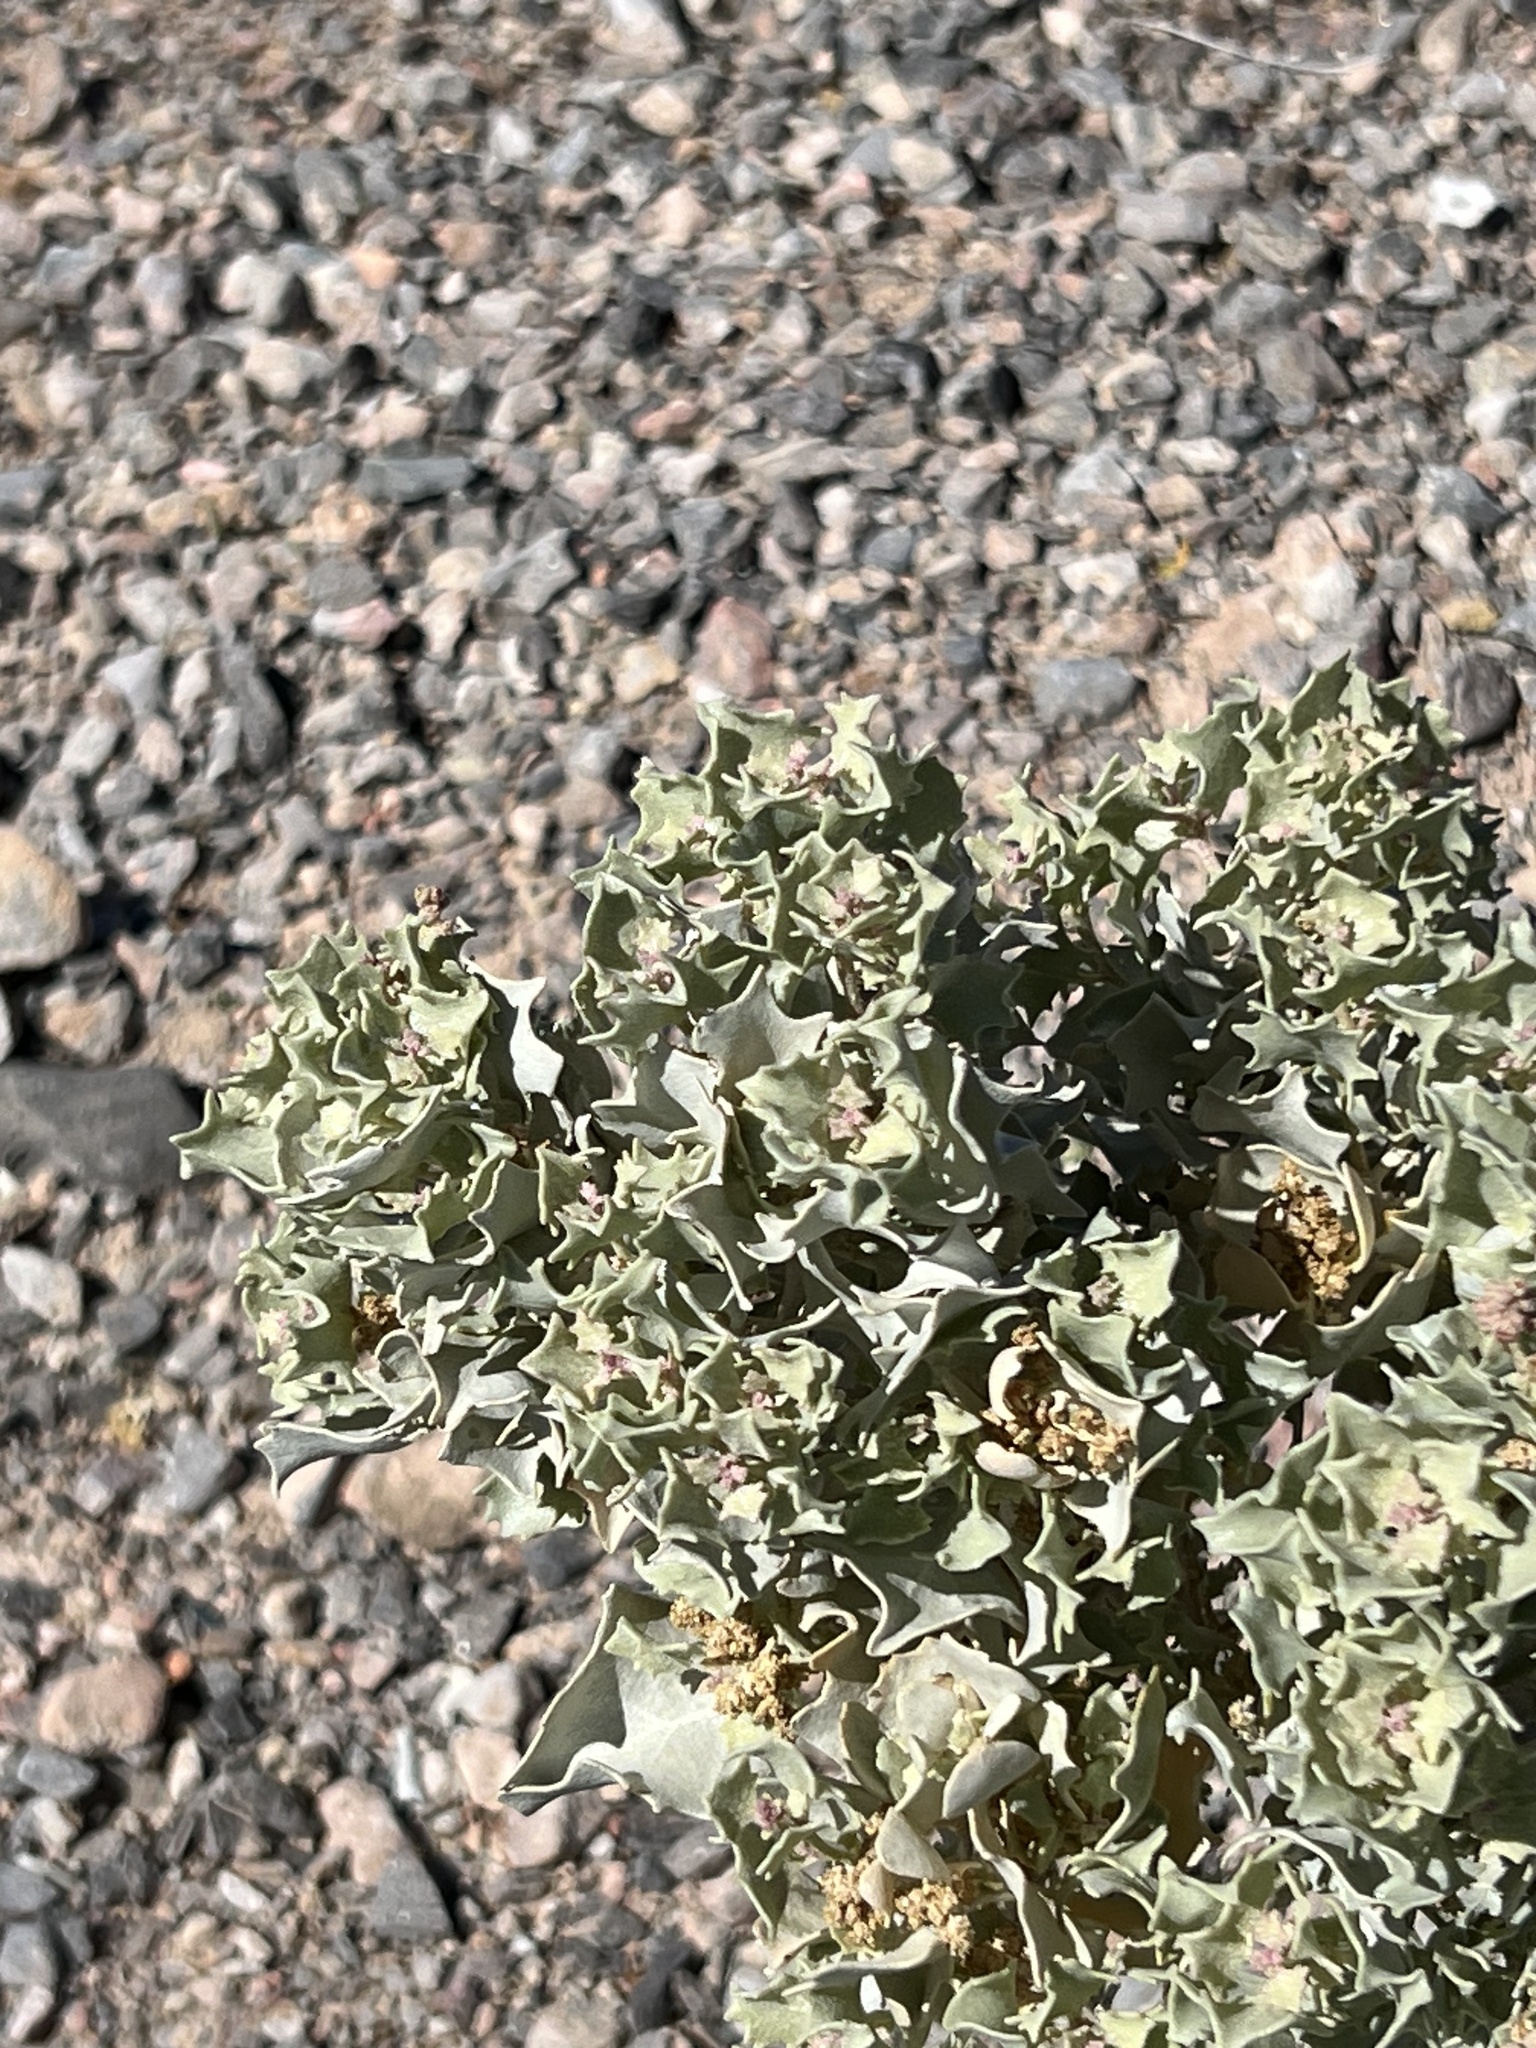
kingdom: Plantae
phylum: Tracheophyta
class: Magnoliopsida
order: Caryophyllales
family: Amaranthaceae
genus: Atriplex
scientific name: Atriplex hymenelytra
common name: Desert-holly
